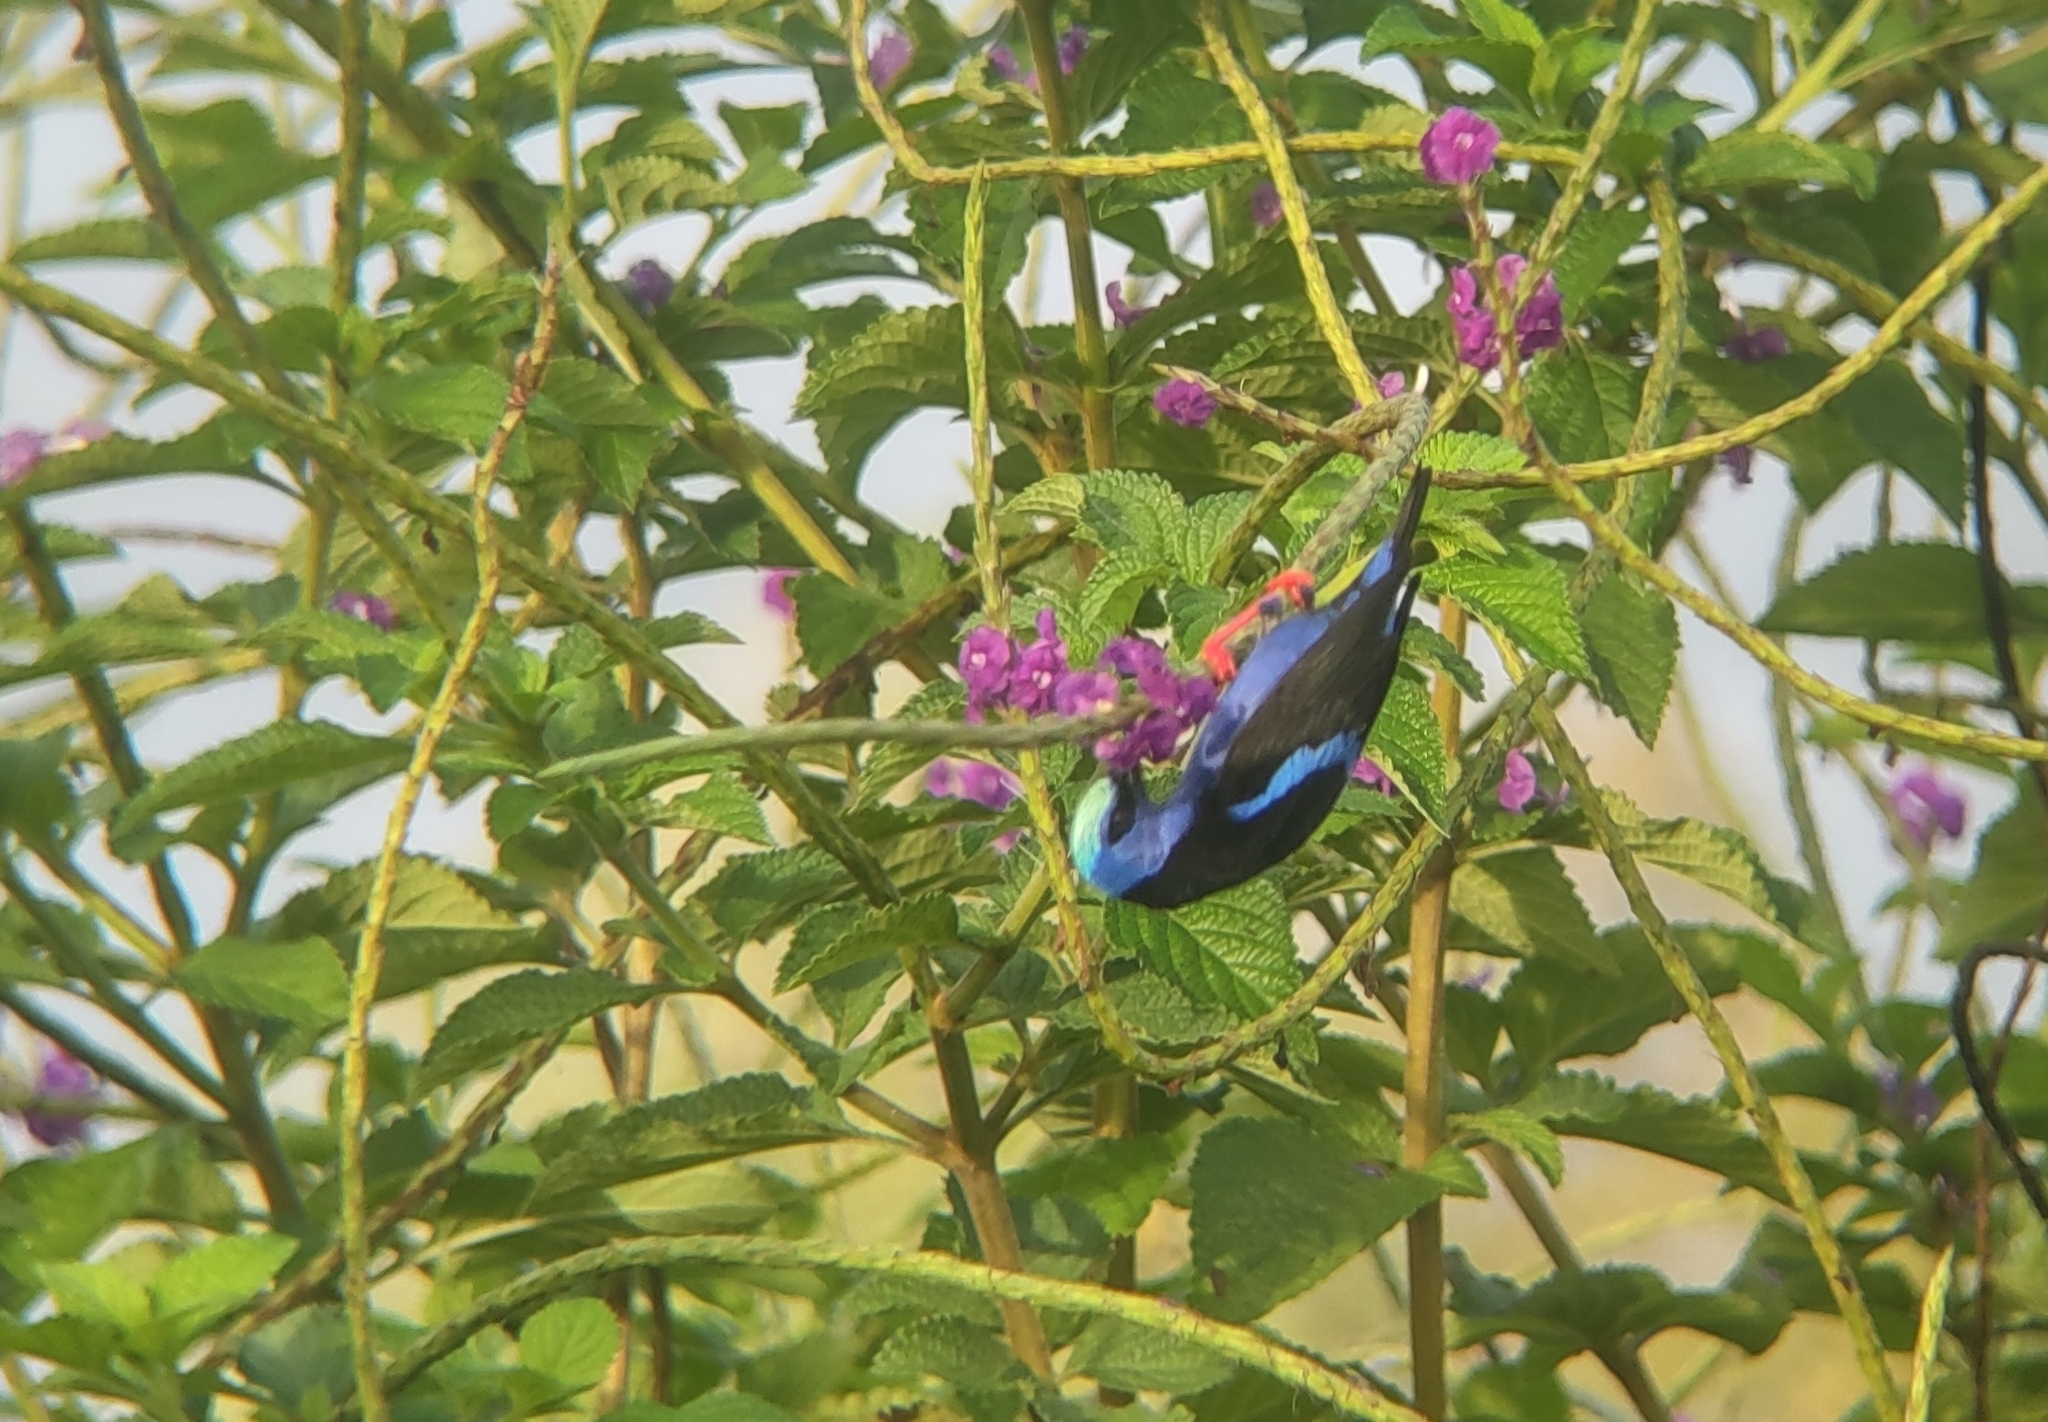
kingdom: Animalia
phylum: Chordata
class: Aves
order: Passeriformes
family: Thraupidae
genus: Cyanerpes
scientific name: Cyanerpes cyaneus
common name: Red-legged honeycreeper
